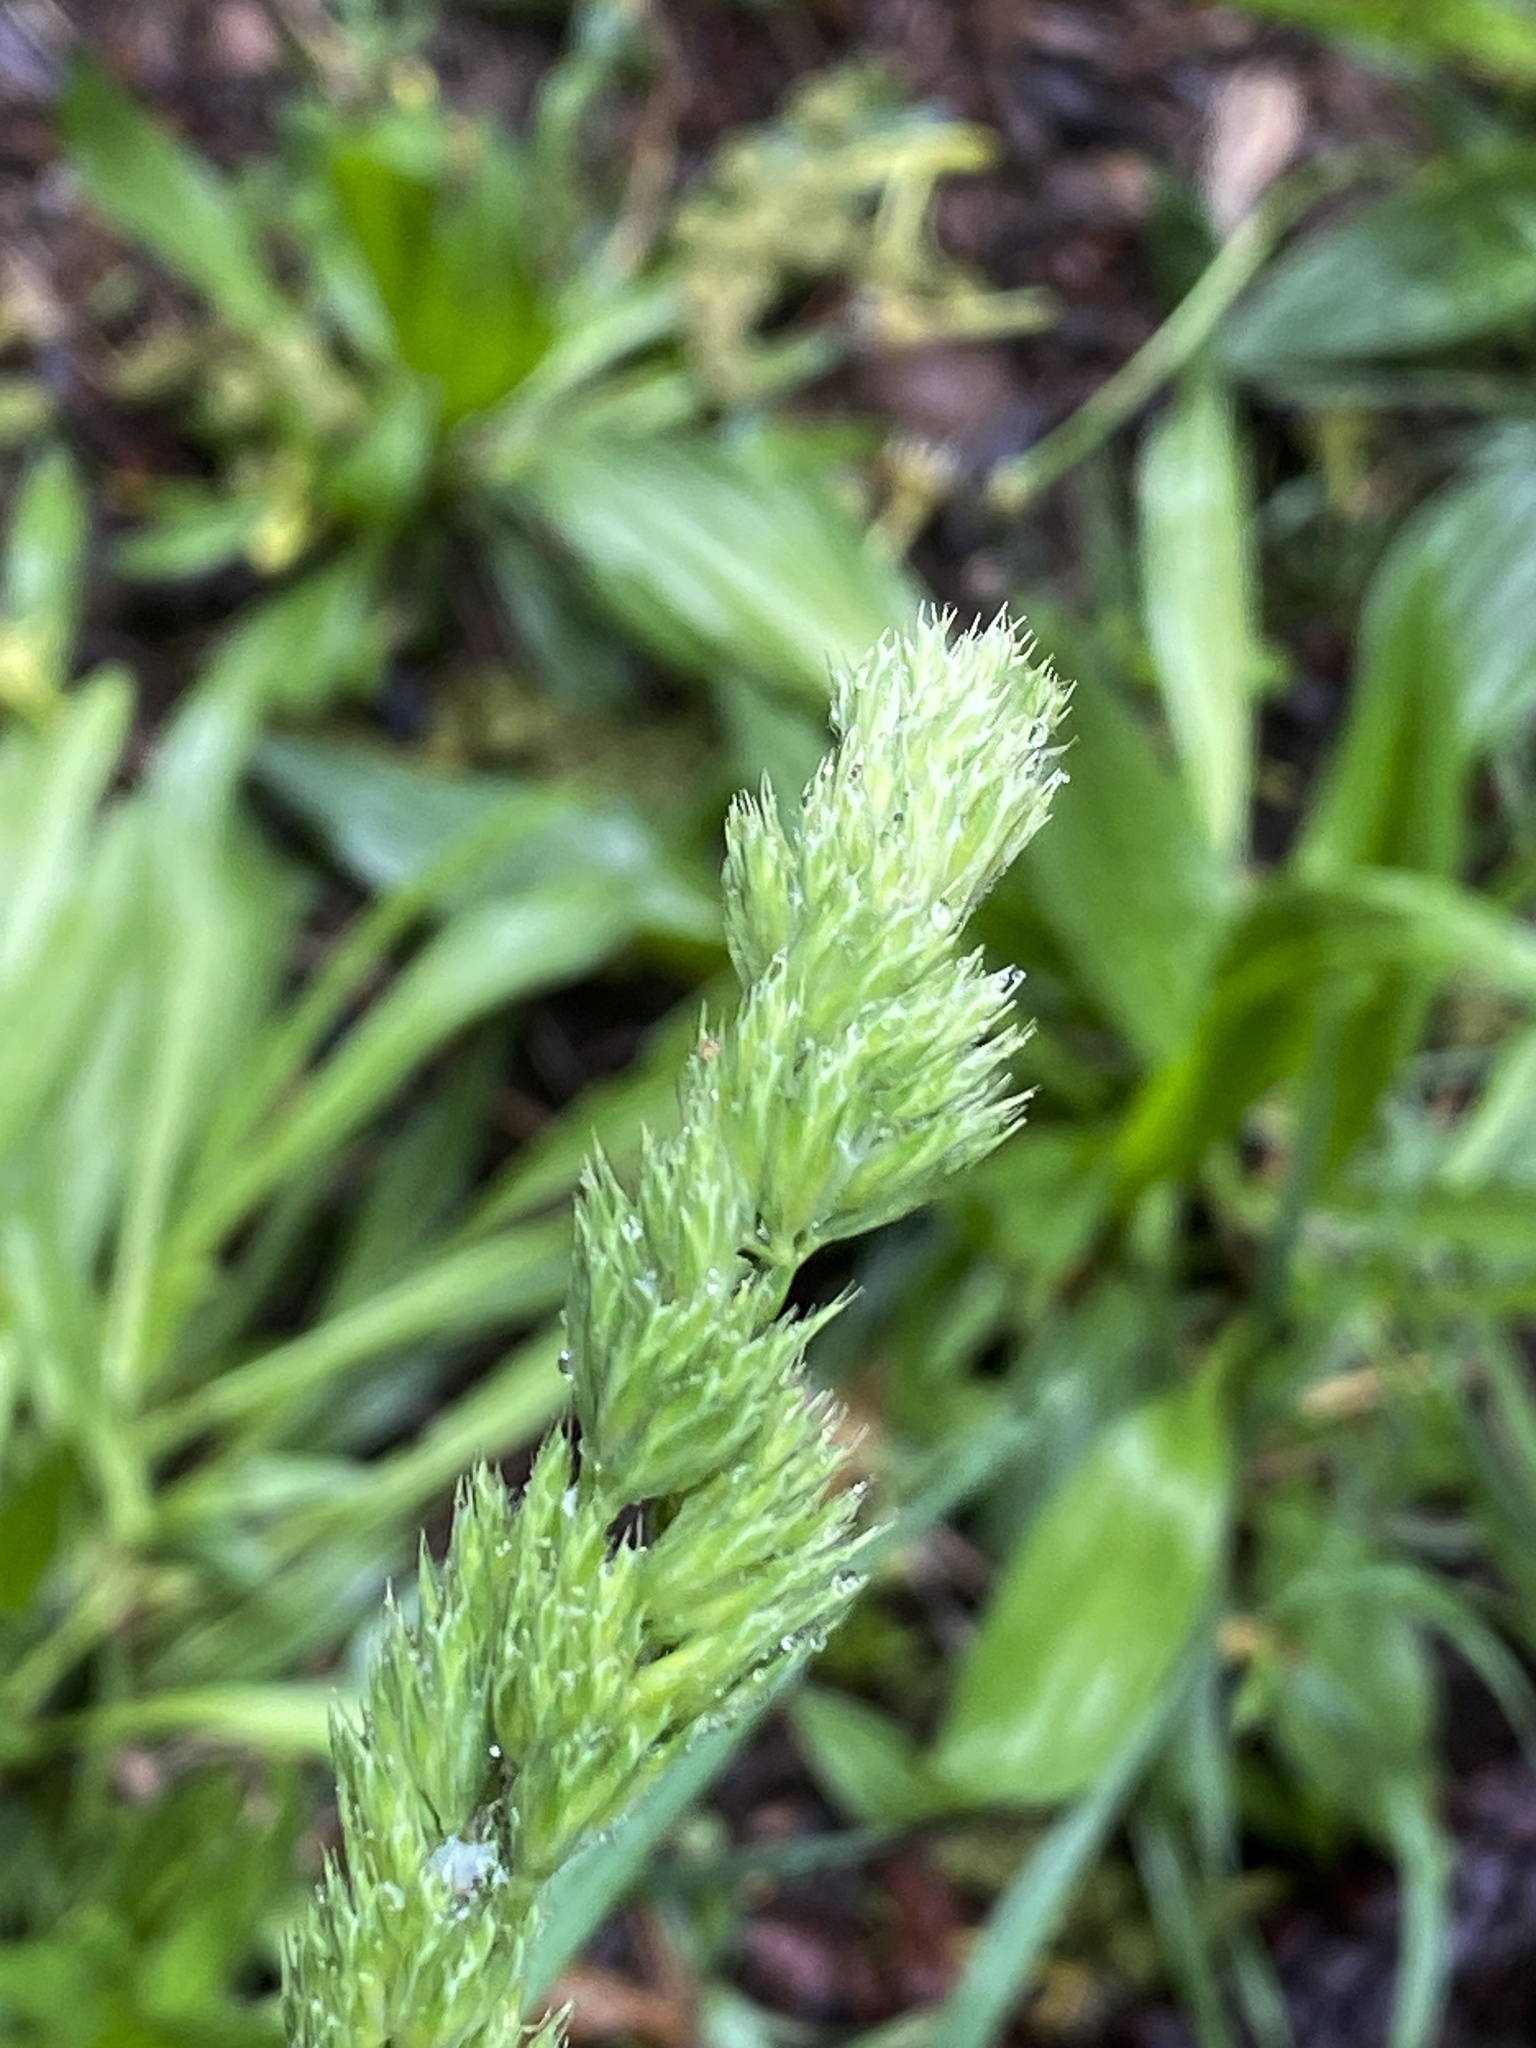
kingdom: Plantae
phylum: Tracheophyta
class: Liliopsida
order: Poales
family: Poaceae
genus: Dactylis
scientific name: Dactylis glomerata
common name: Orchardgrass
